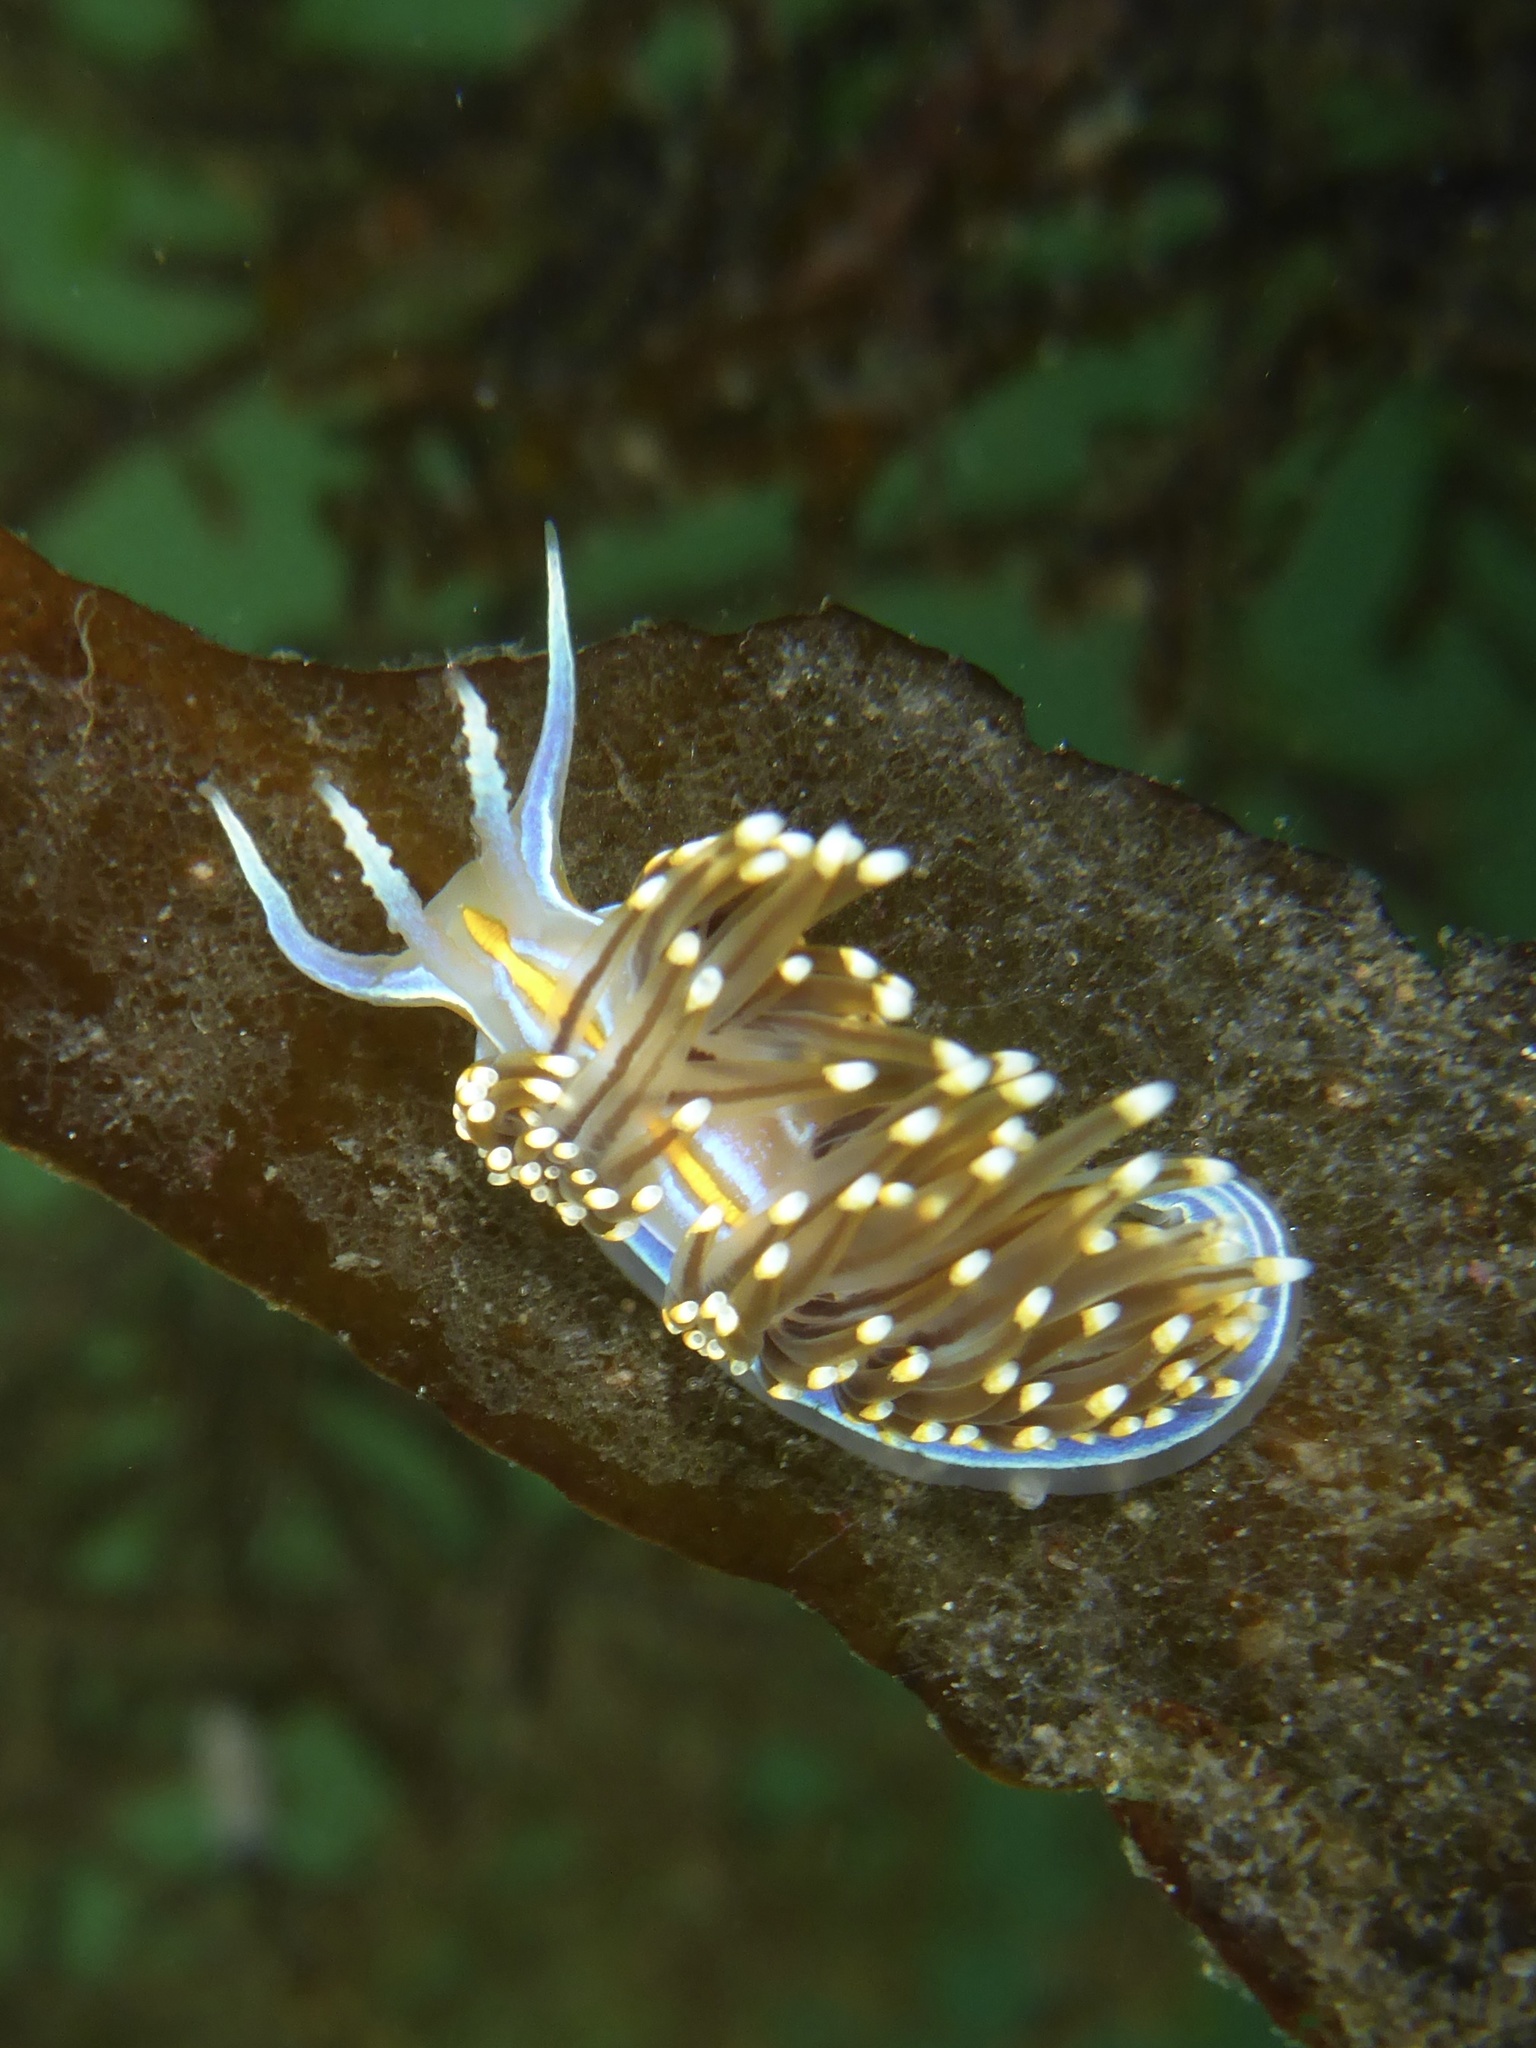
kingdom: Animalia
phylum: Mollusca
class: Gastropoda
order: Nudibranchia
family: Myrrhinidae
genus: Hermissenda
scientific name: Hermissenda opalescens
